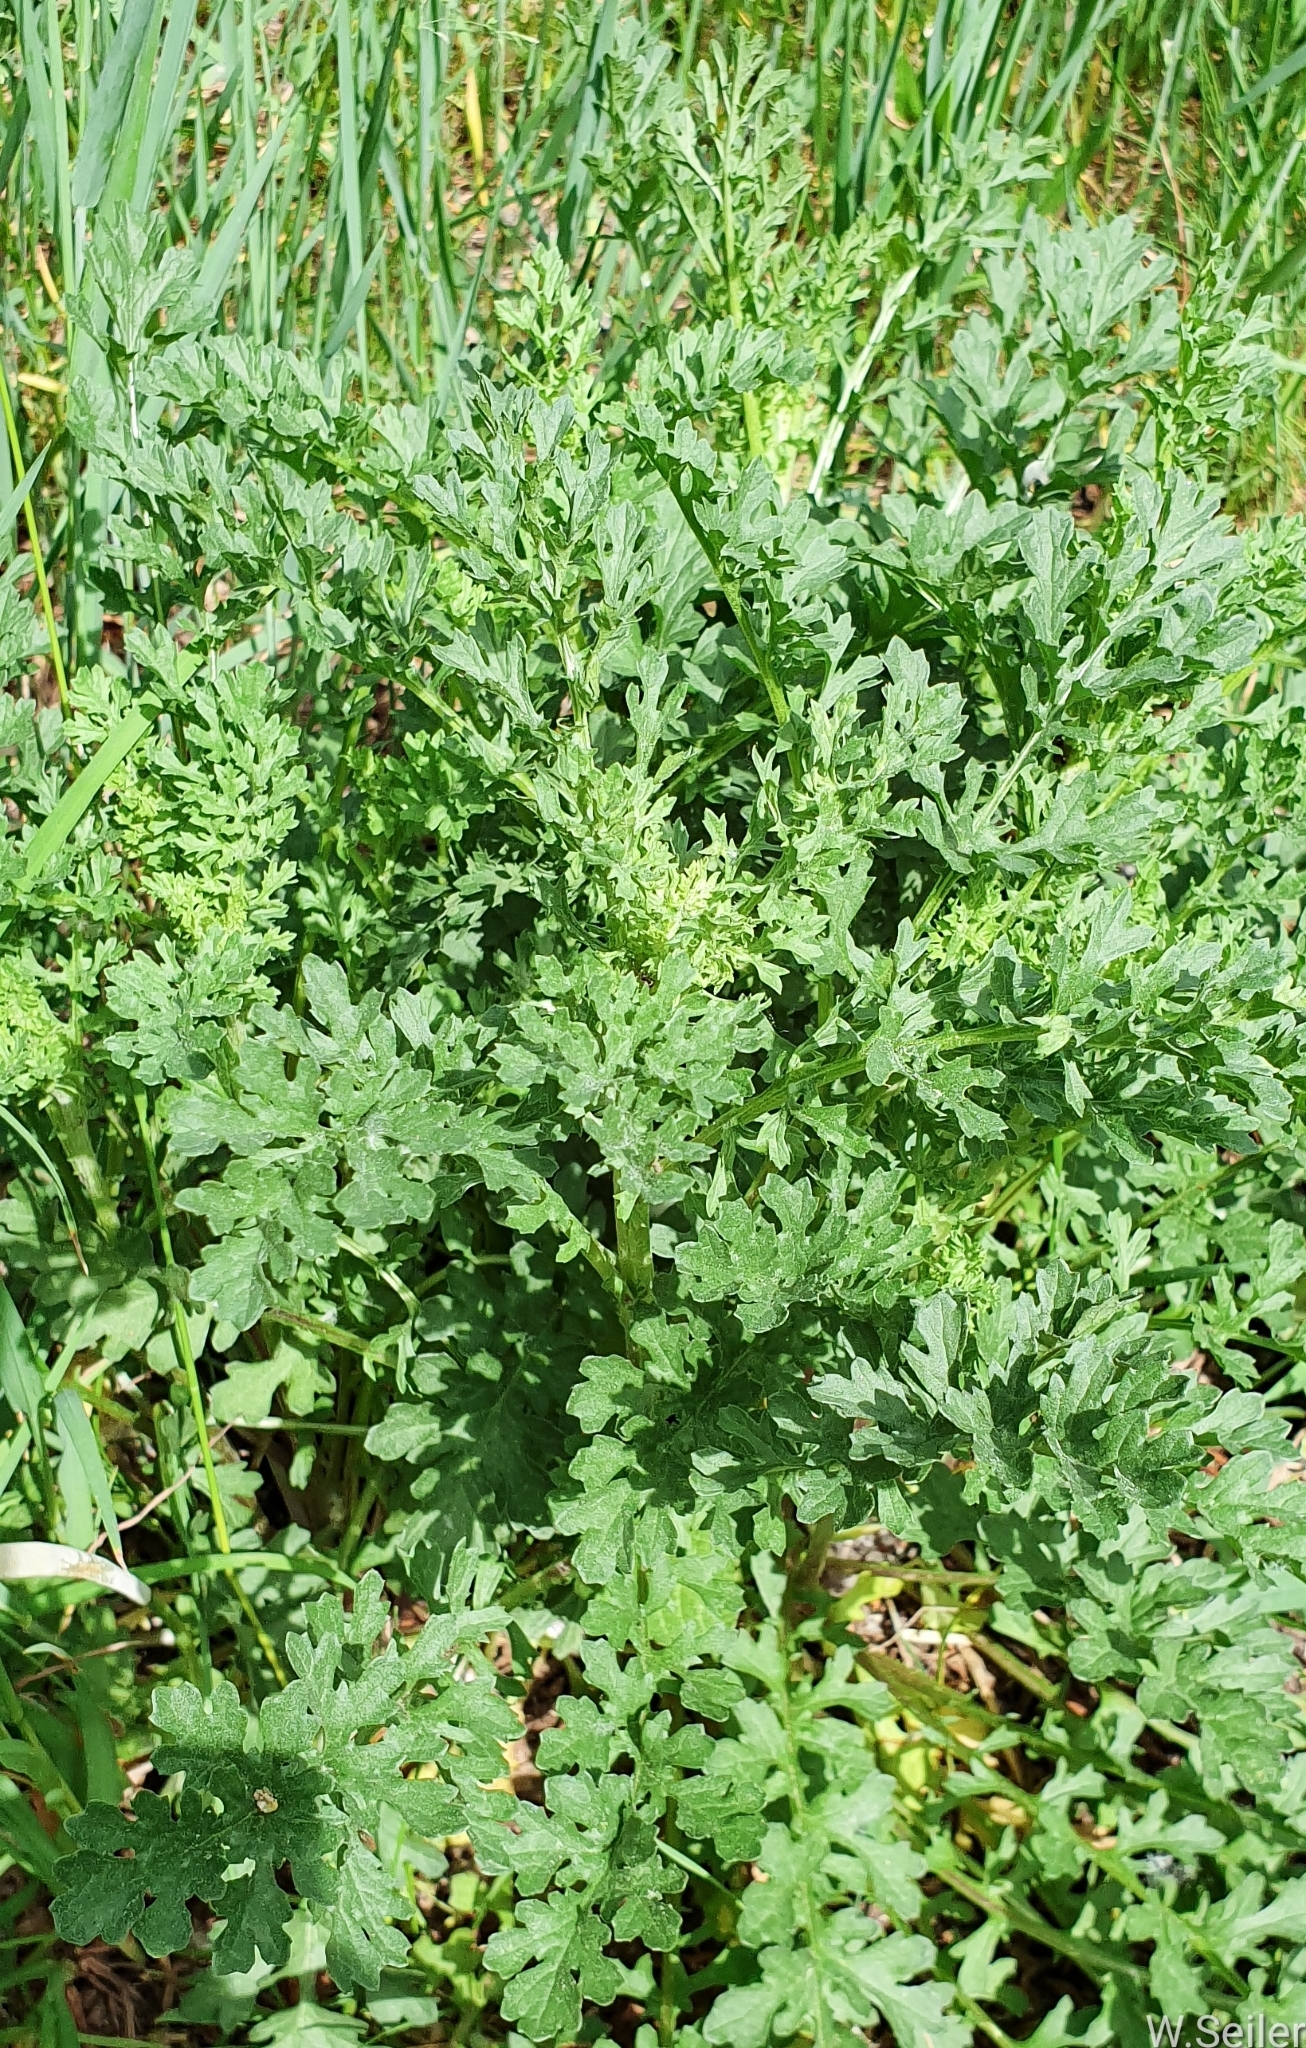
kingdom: Plantae
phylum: Tracheophyta
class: Magnoliopsida
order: Asterales
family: Asteraceae
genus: Jacobaea
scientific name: Jacobaea vulgaris
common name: Stinking willie
